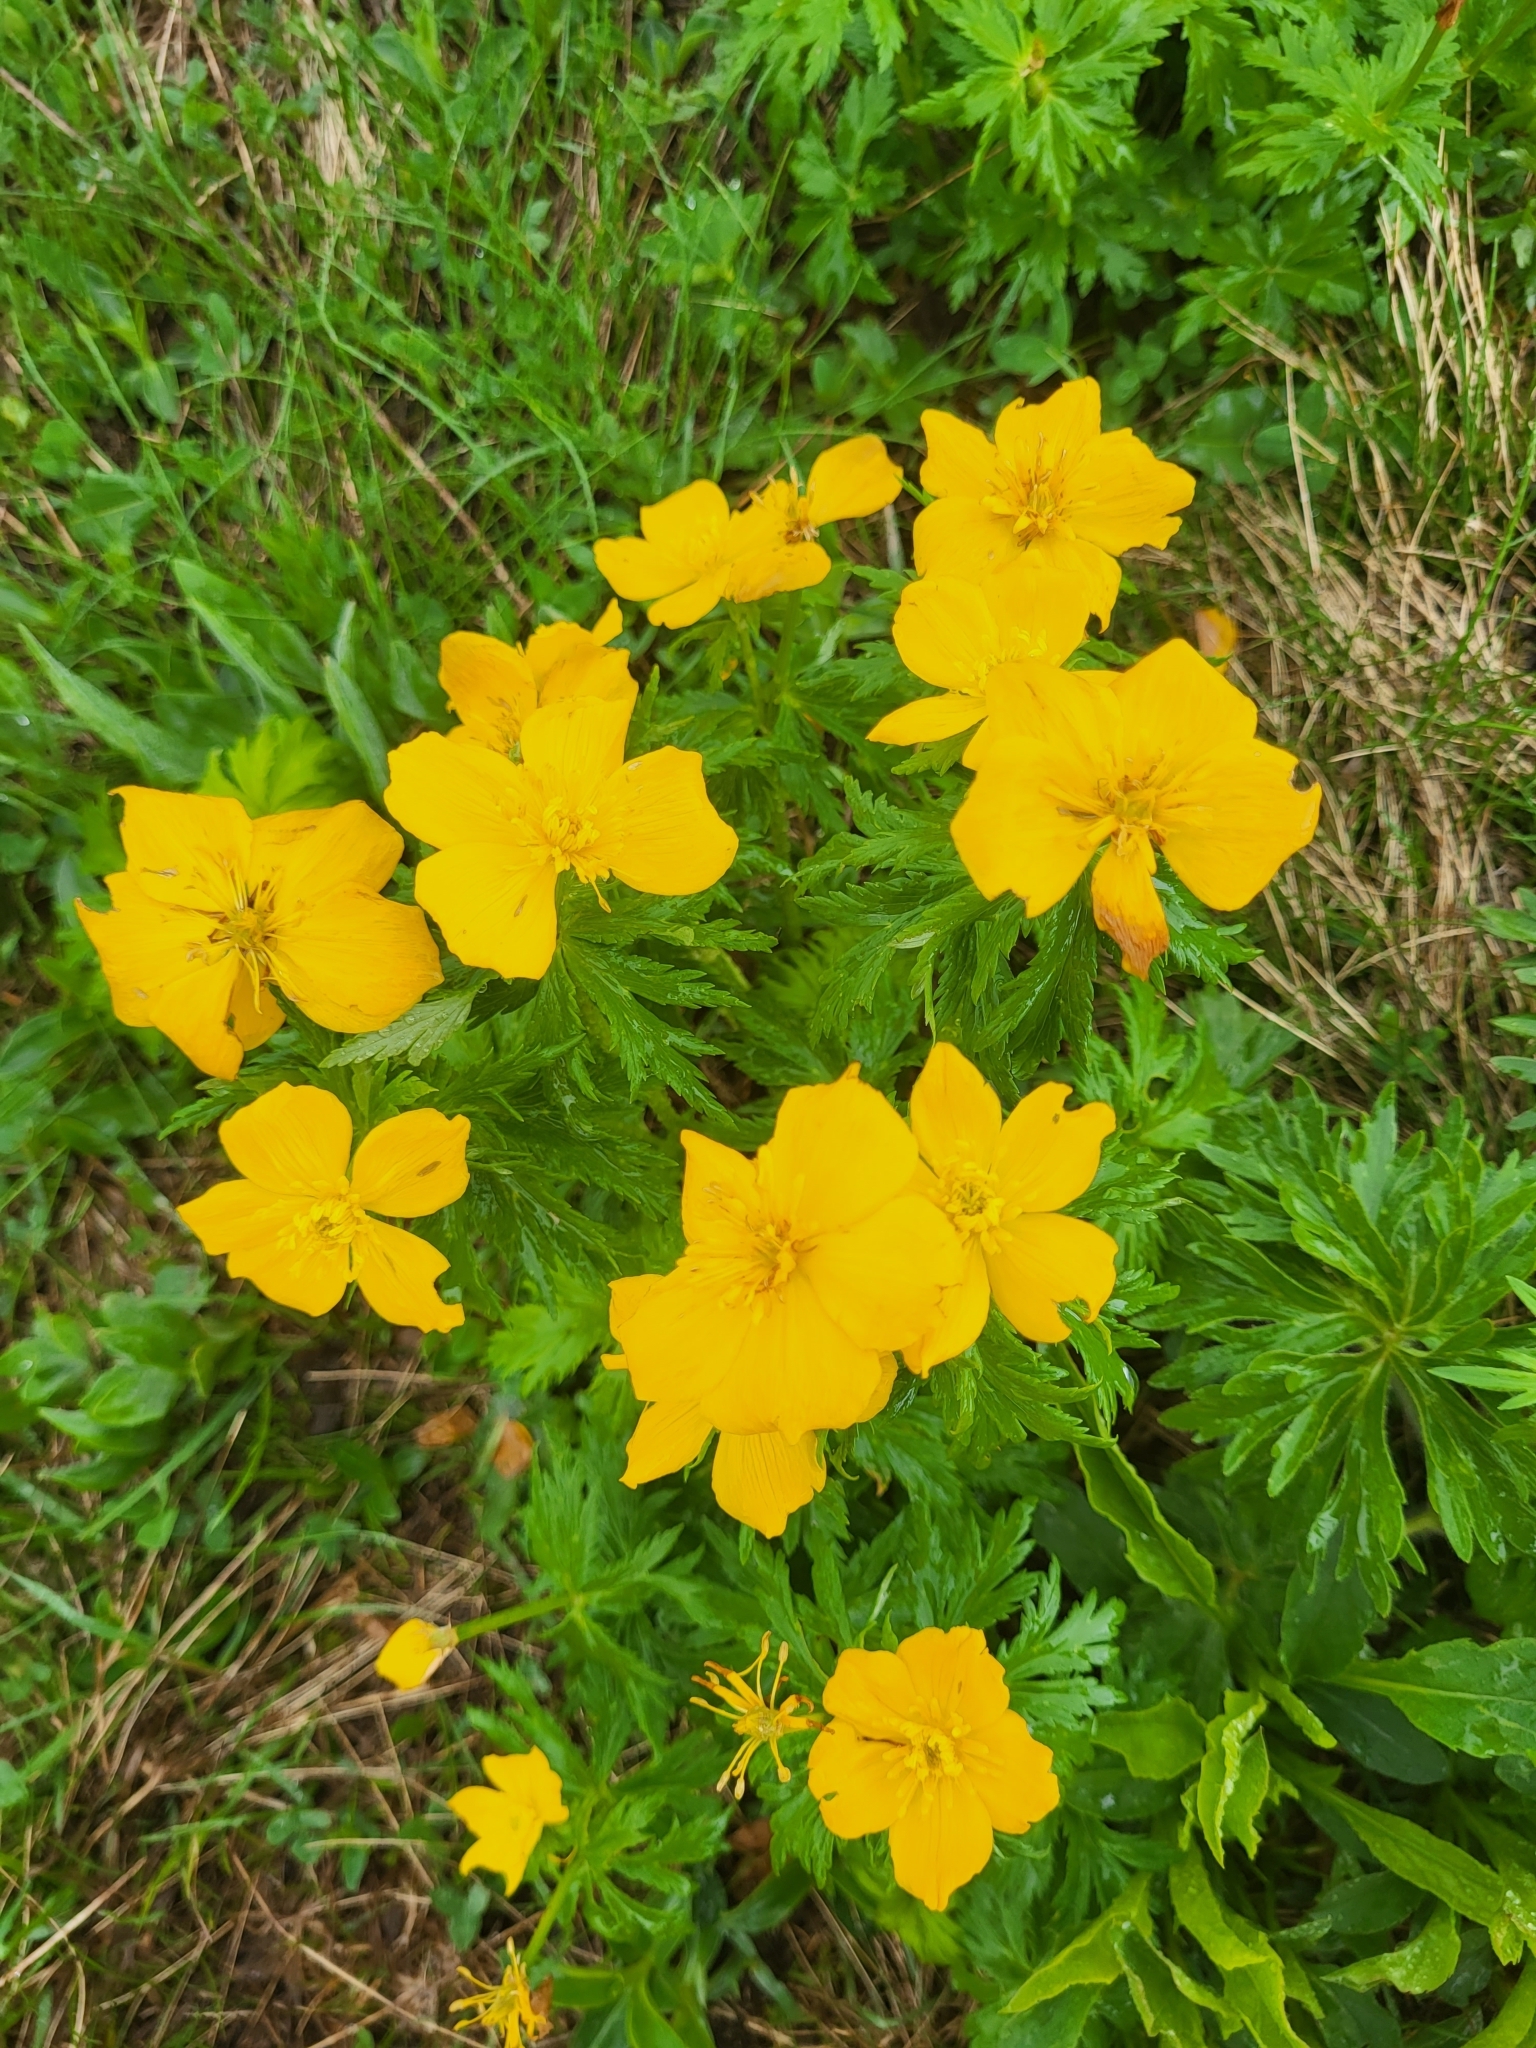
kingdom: Plantae
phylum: Tracheophyta
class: Magnoliopsida
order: Ranunculales
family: Ranunculaceae
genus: Trollius
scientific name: Trollius ranunculinus
